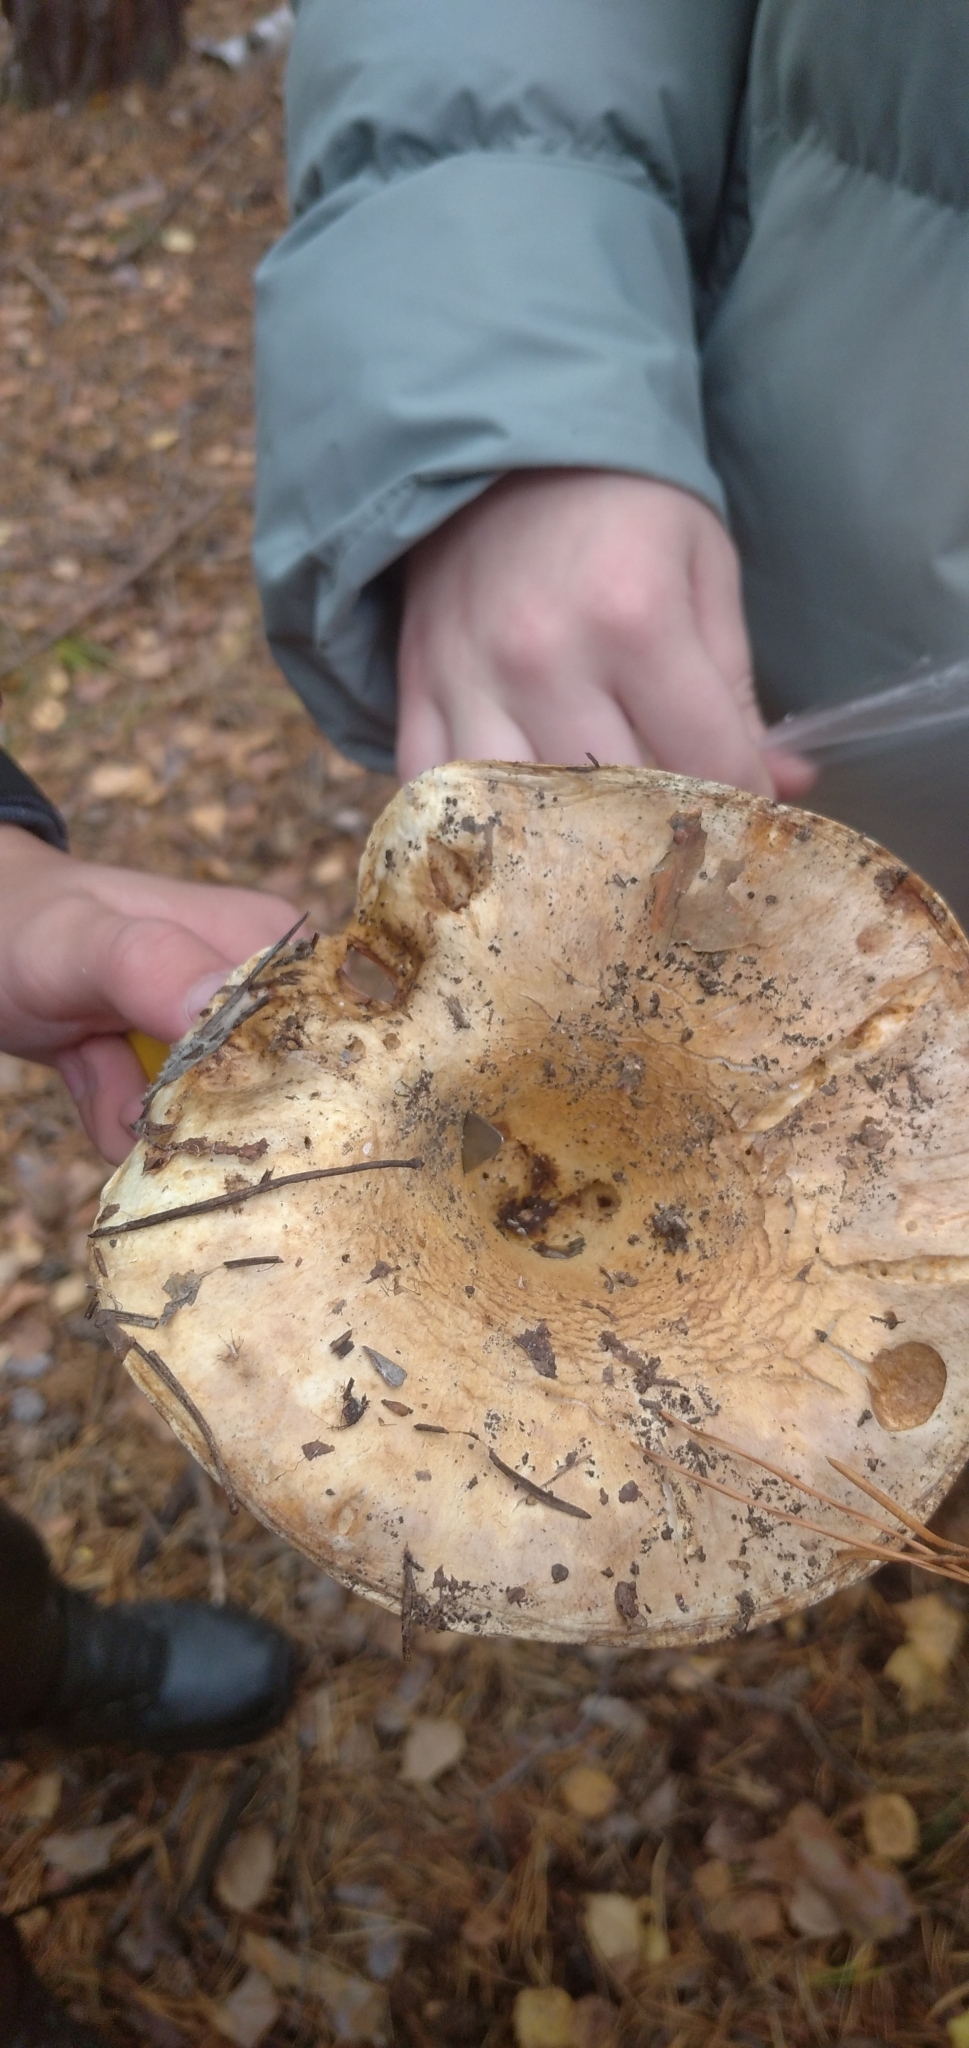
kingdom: Fungi
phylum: Basidiomycota
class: Agaricomycetes
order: Russulales
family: Russulaceae
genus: Russula
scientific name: Russula delica
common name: Milk white brittlegill
